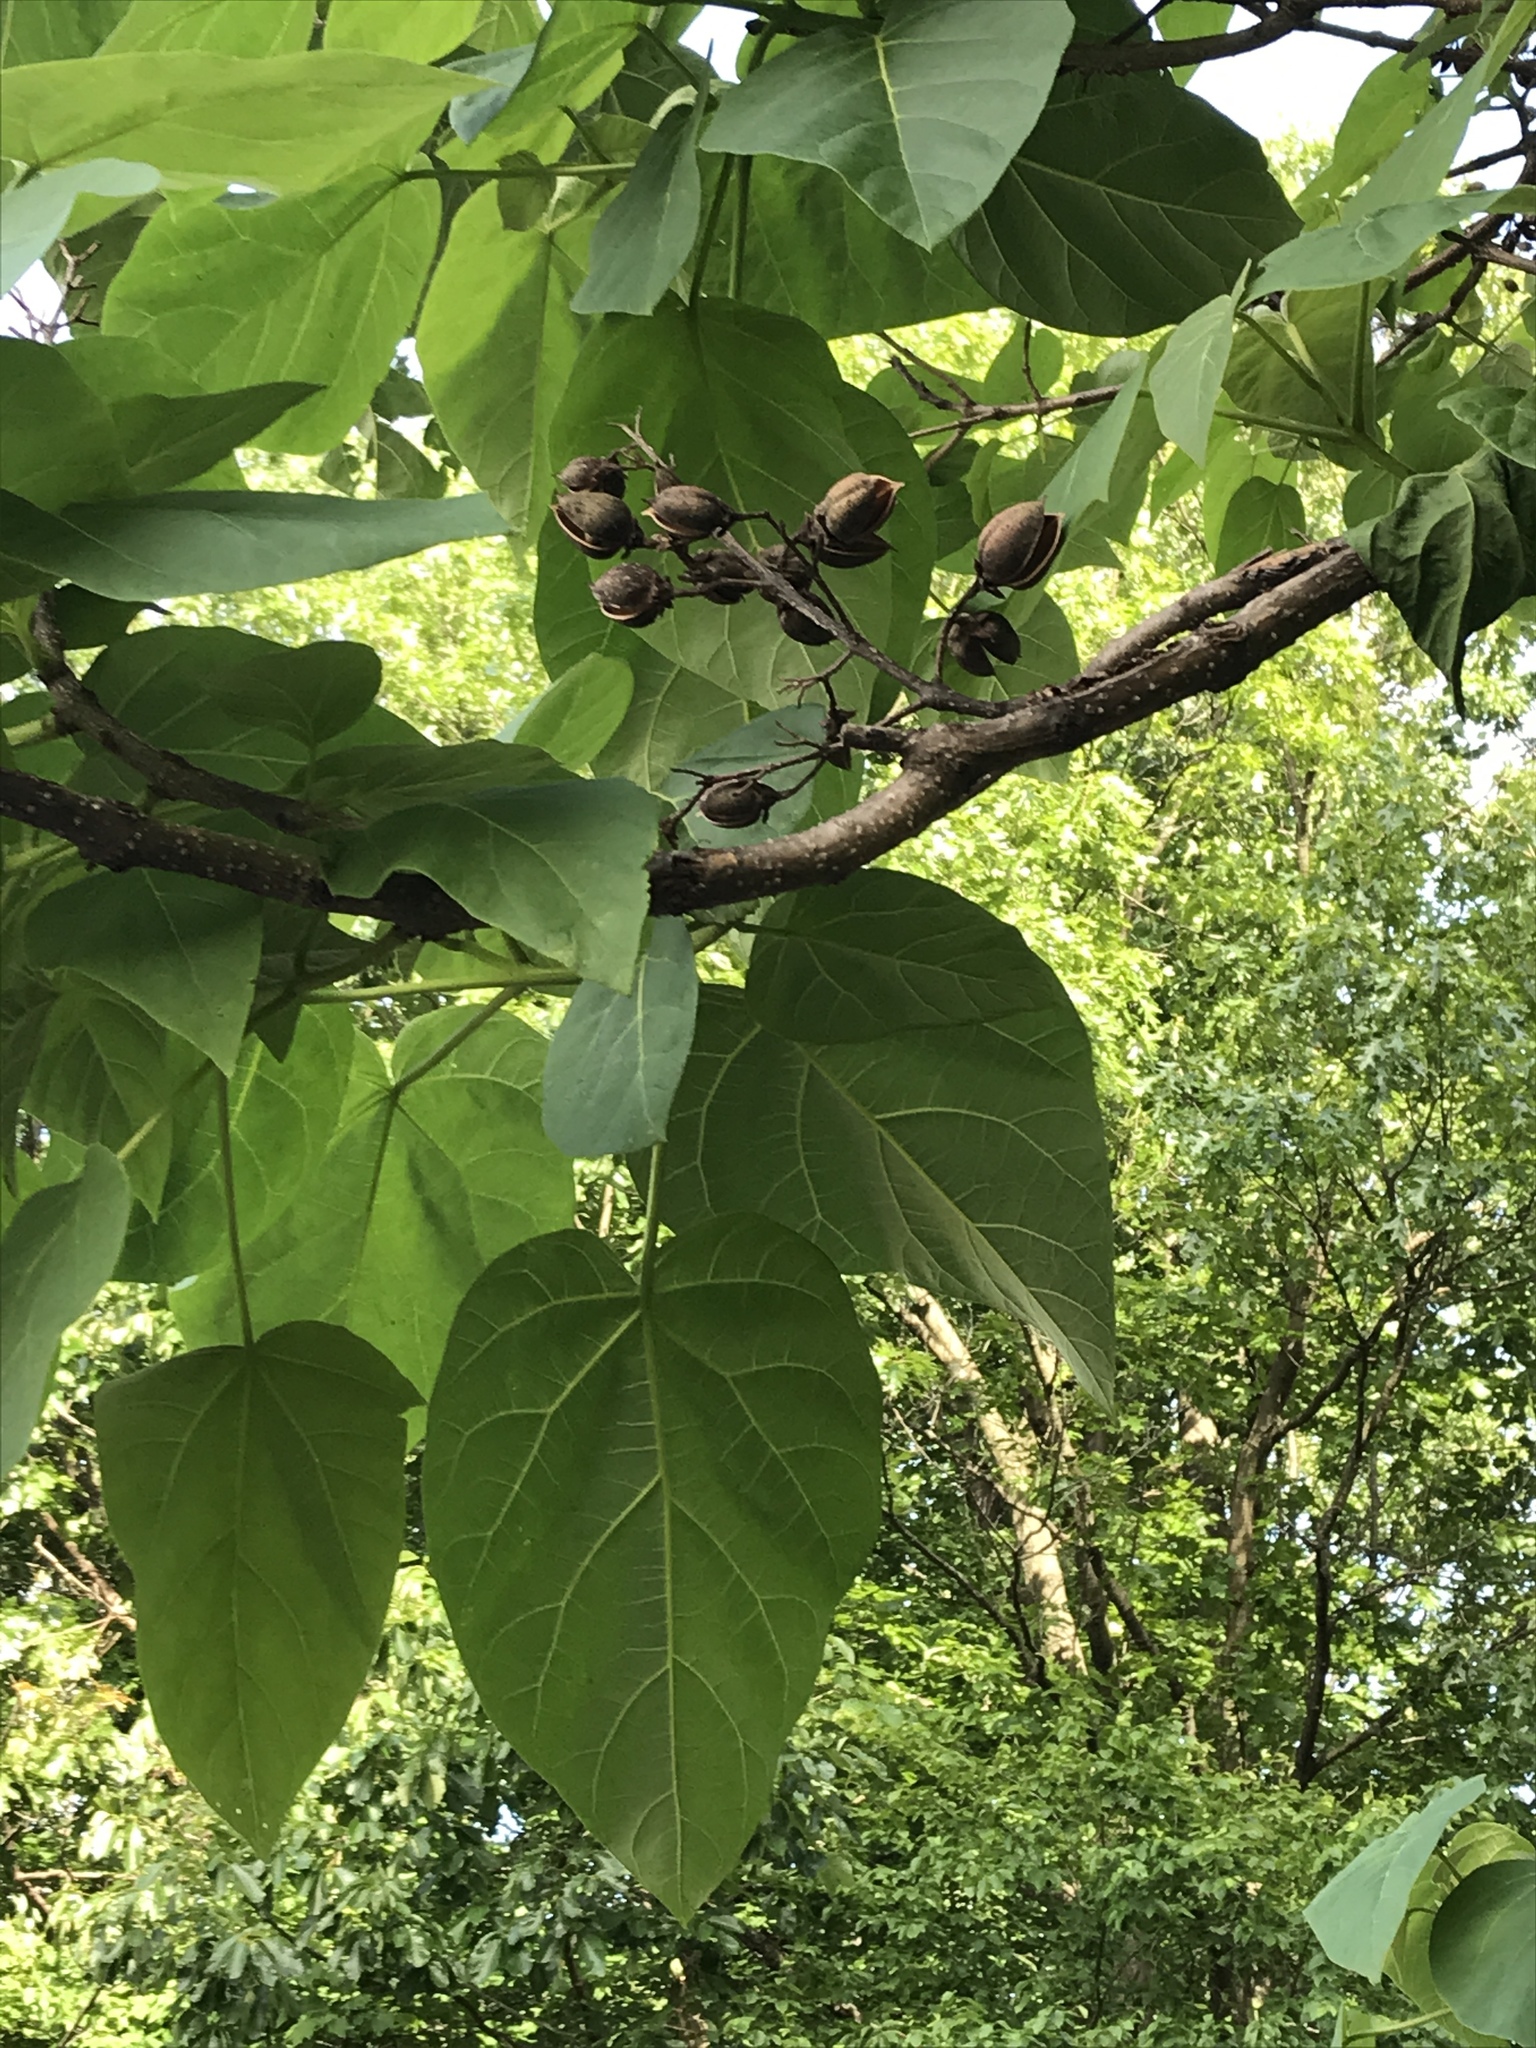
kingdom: Plantae
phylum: Tracheophyta
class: Magnoliopsida
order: Lamiales
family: Paulowniaceae
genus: Paulownia
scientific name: Paulownia tomentosa
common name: Foxglove-tree
